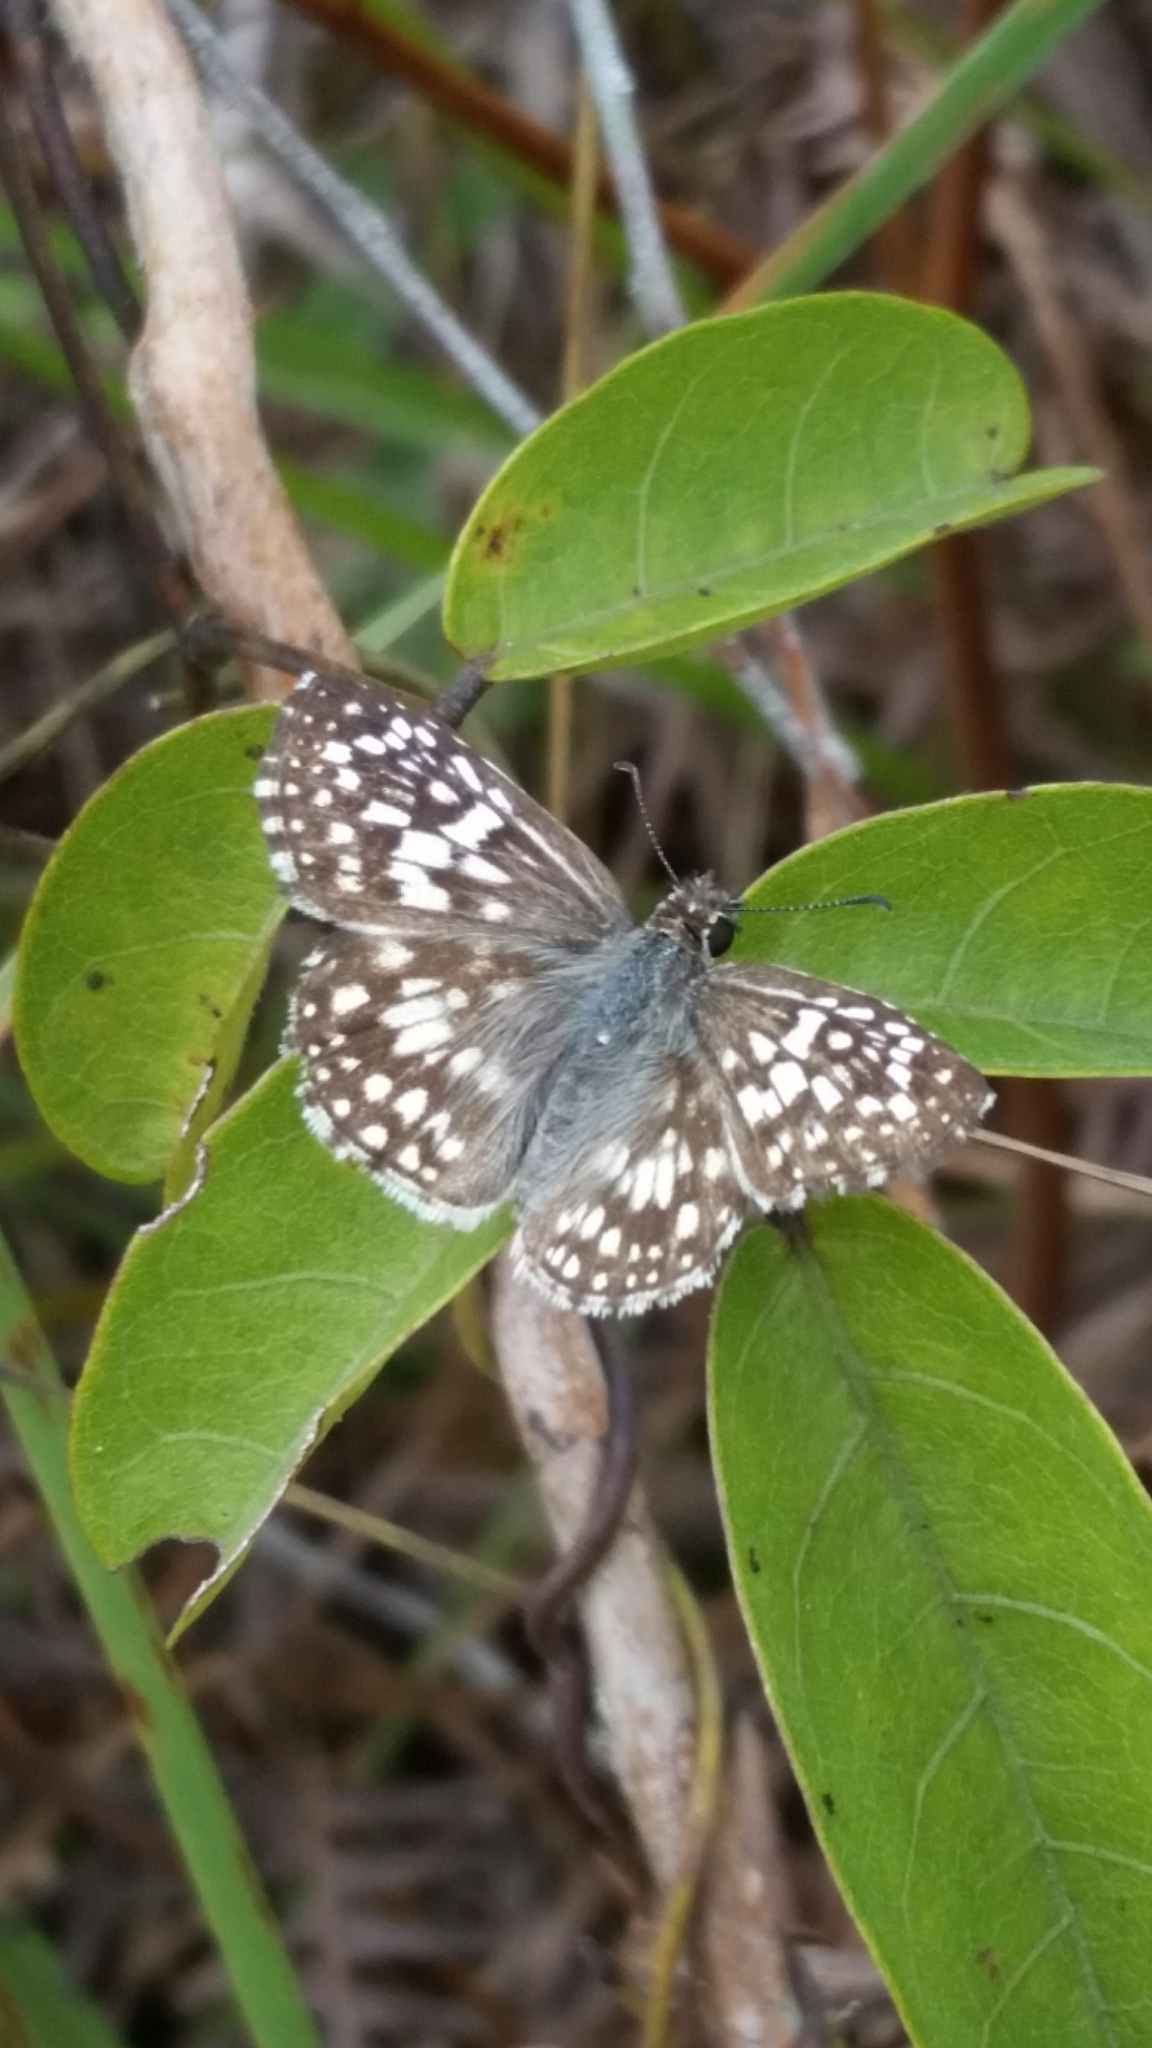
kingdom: Animalia
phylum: Arthropoda
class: Insecta
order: Lepidoptera
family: Hesperiidae
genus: Pyrgus
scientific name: Pyrgus oileus
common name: Tropical checkered-skipper
